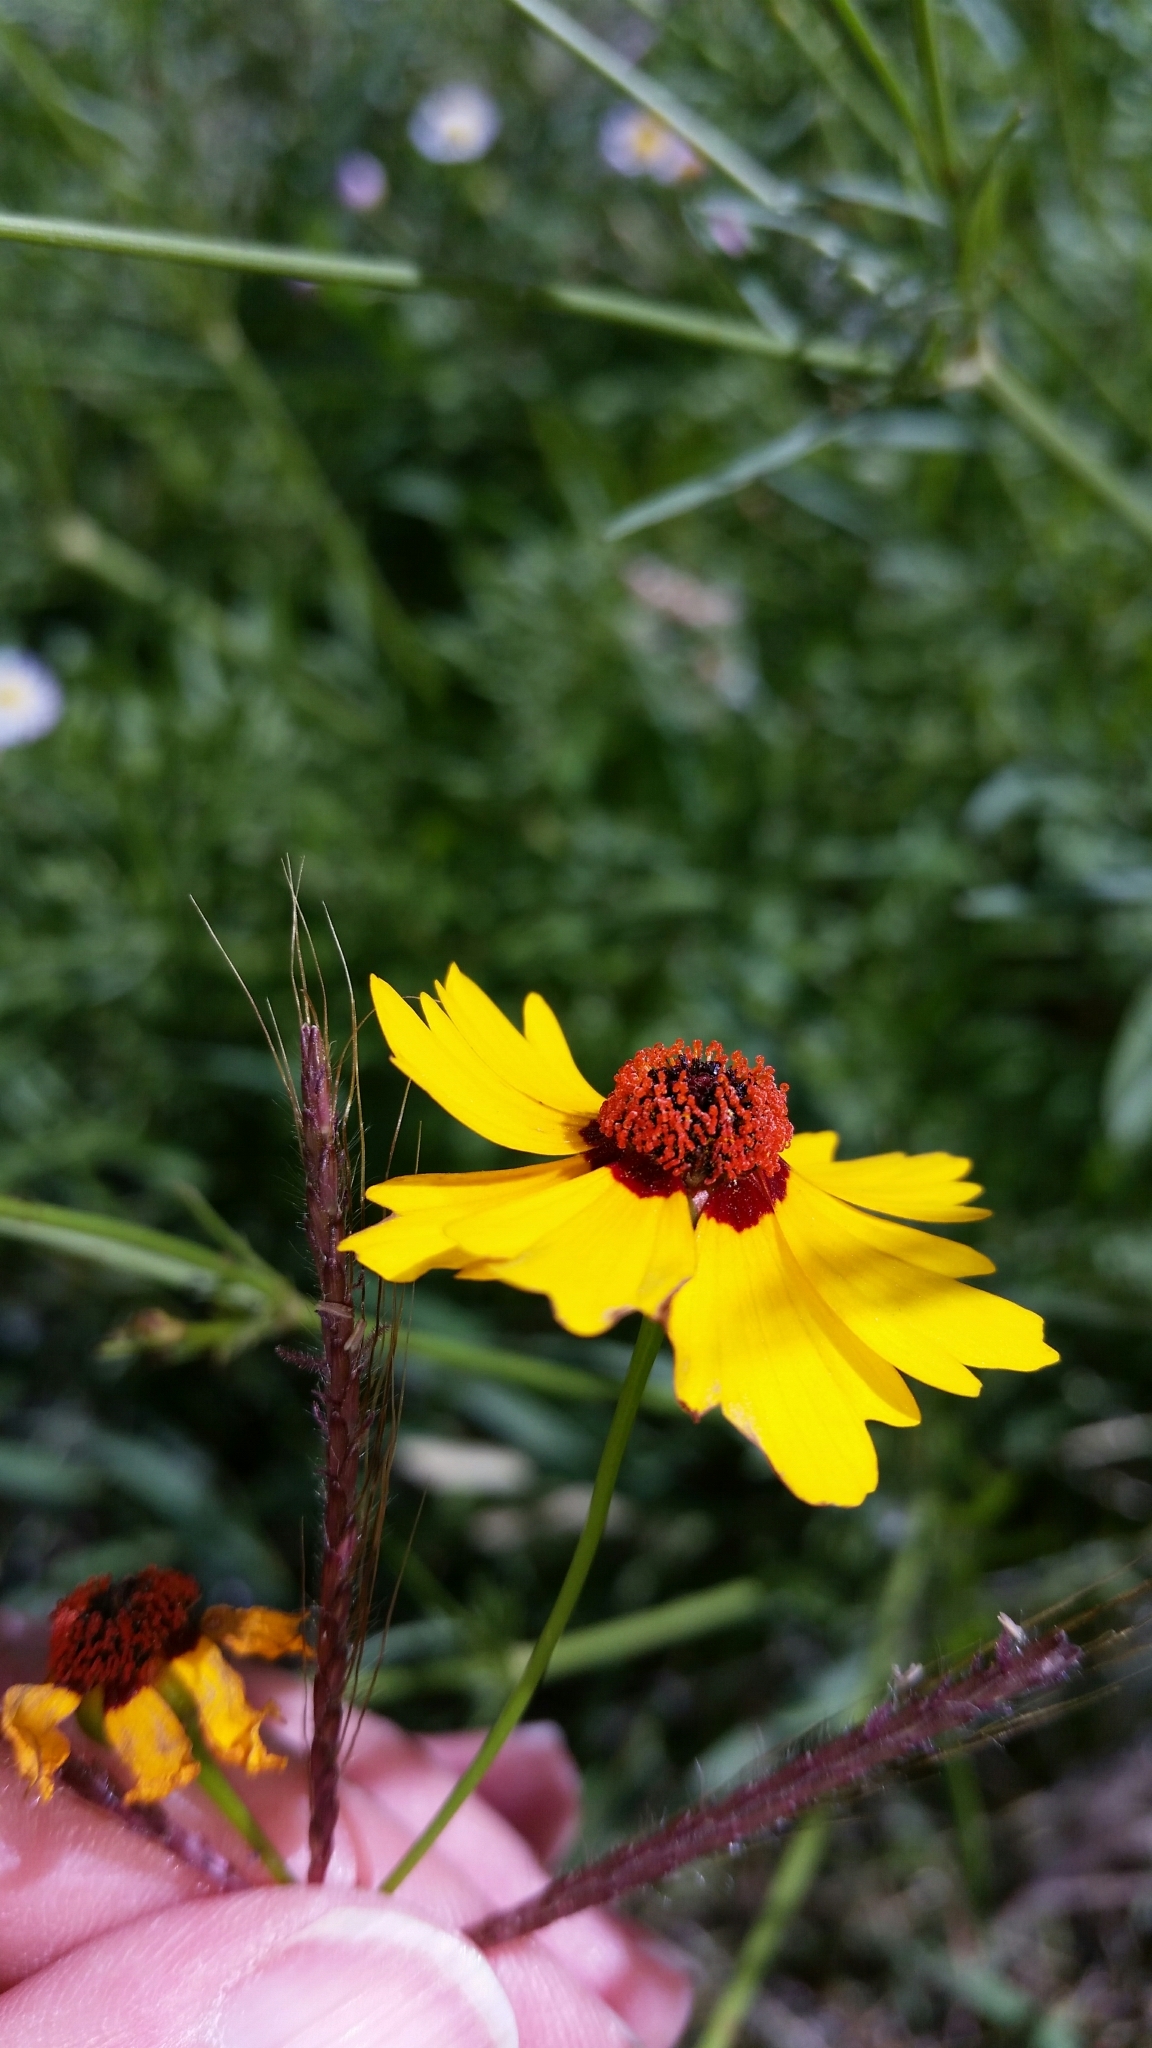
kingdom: Plantae
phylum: Tracheophyta
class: Magnoliopsida
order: Asterales
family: Asteraceae
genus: Coreopsis
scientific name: Coreopsis tinctoria
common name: Garden tickseed
